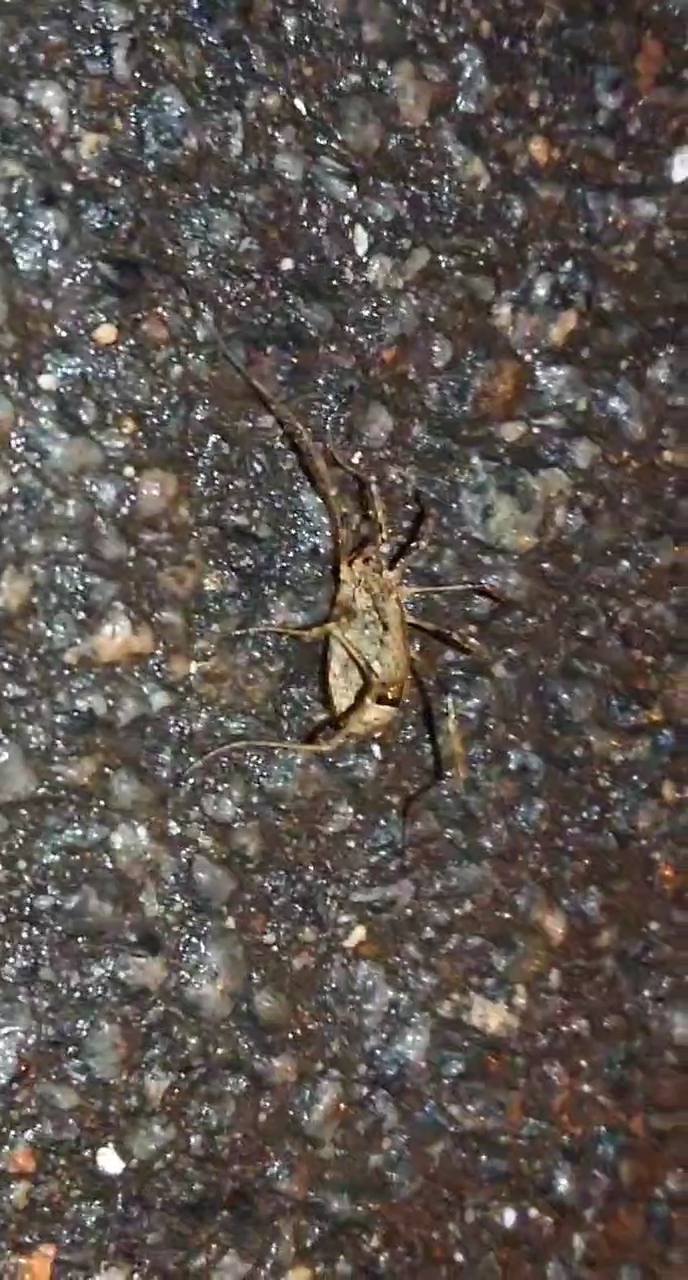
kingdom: Animalia
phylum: Arthropoda
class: Arachnida
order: Opiliones
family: Phalangiidae
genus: Odiellus
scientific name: Odiellus spinosus
